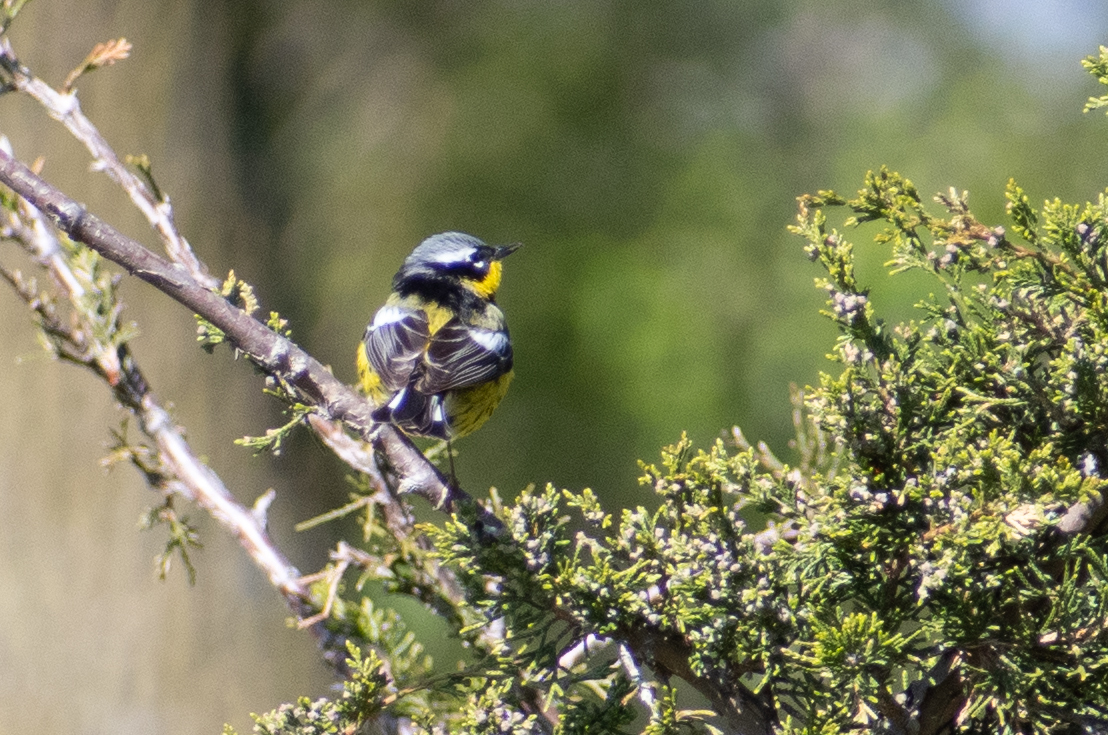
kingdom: Animalia
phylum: Chordata
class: Aves
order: Passeriformes
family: Parulidae
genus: Setophaga
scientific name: Setophaga magnolia
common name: Magnolia warbler
